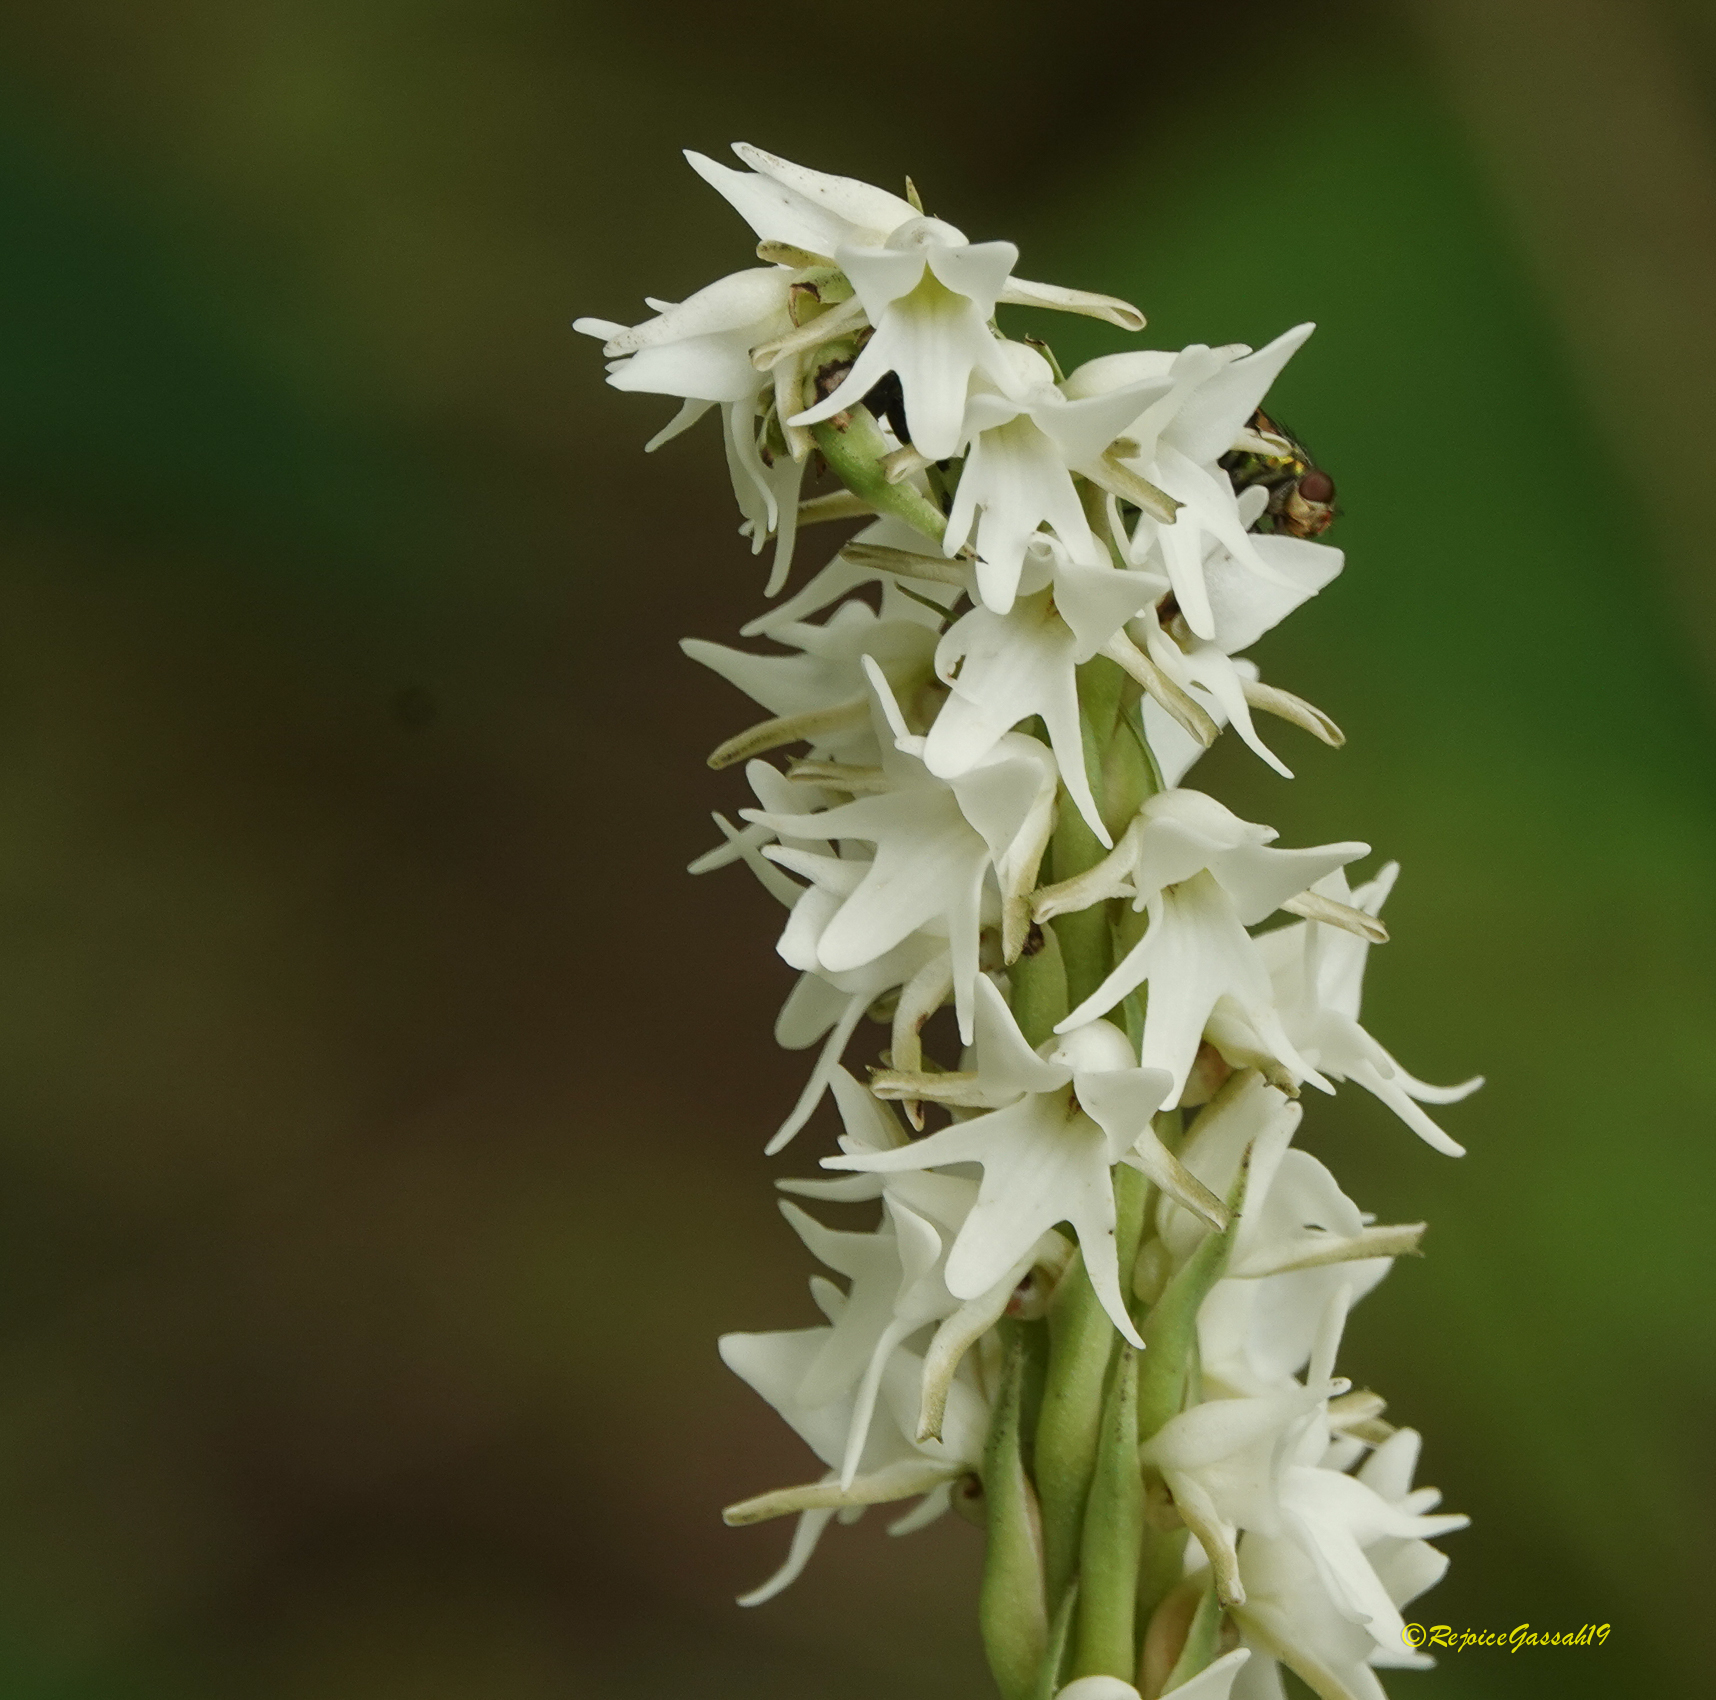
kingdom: Plantae
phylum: Tracheophyta
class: Liliopsida
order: Asparagales
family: Orchidaceae
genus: Peristylus
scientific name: Peristylus constrictus
